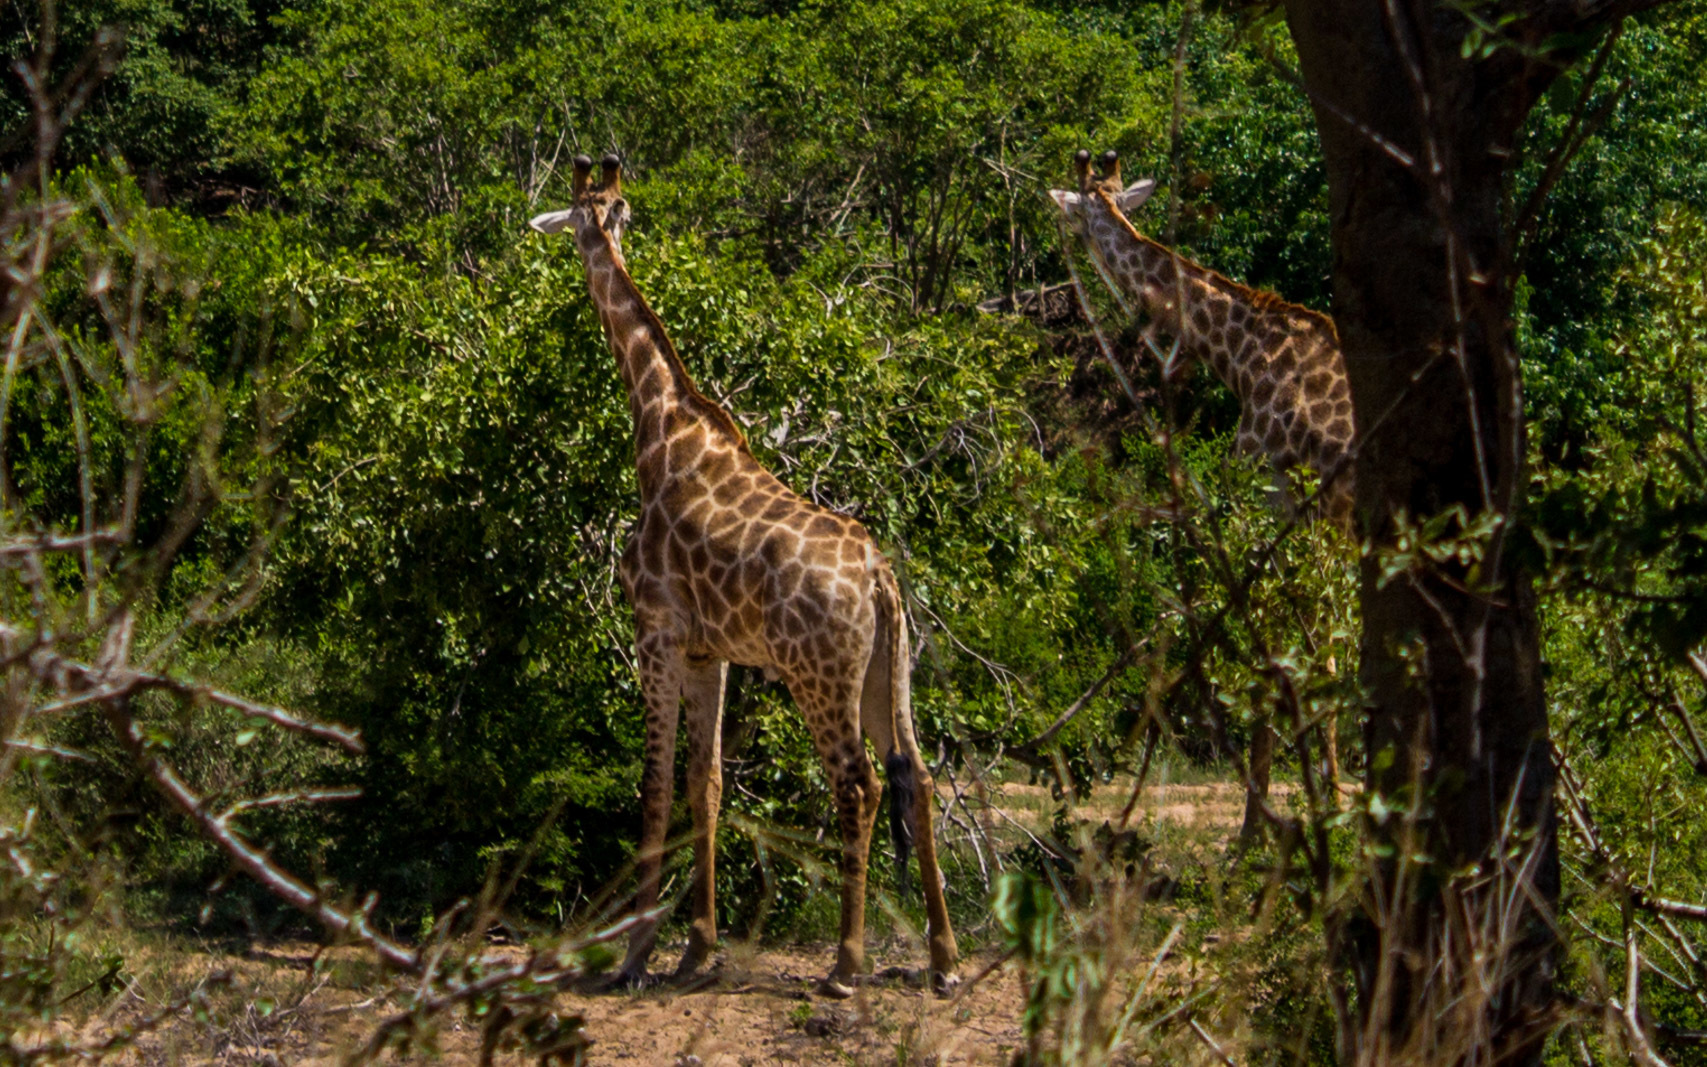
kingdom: Animalia
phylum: Chordata
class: Mammalia
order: Artiodactyla
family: Giraffidae
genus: Giraffa
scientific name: Giraffa giraffa
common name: Southern giraffe
